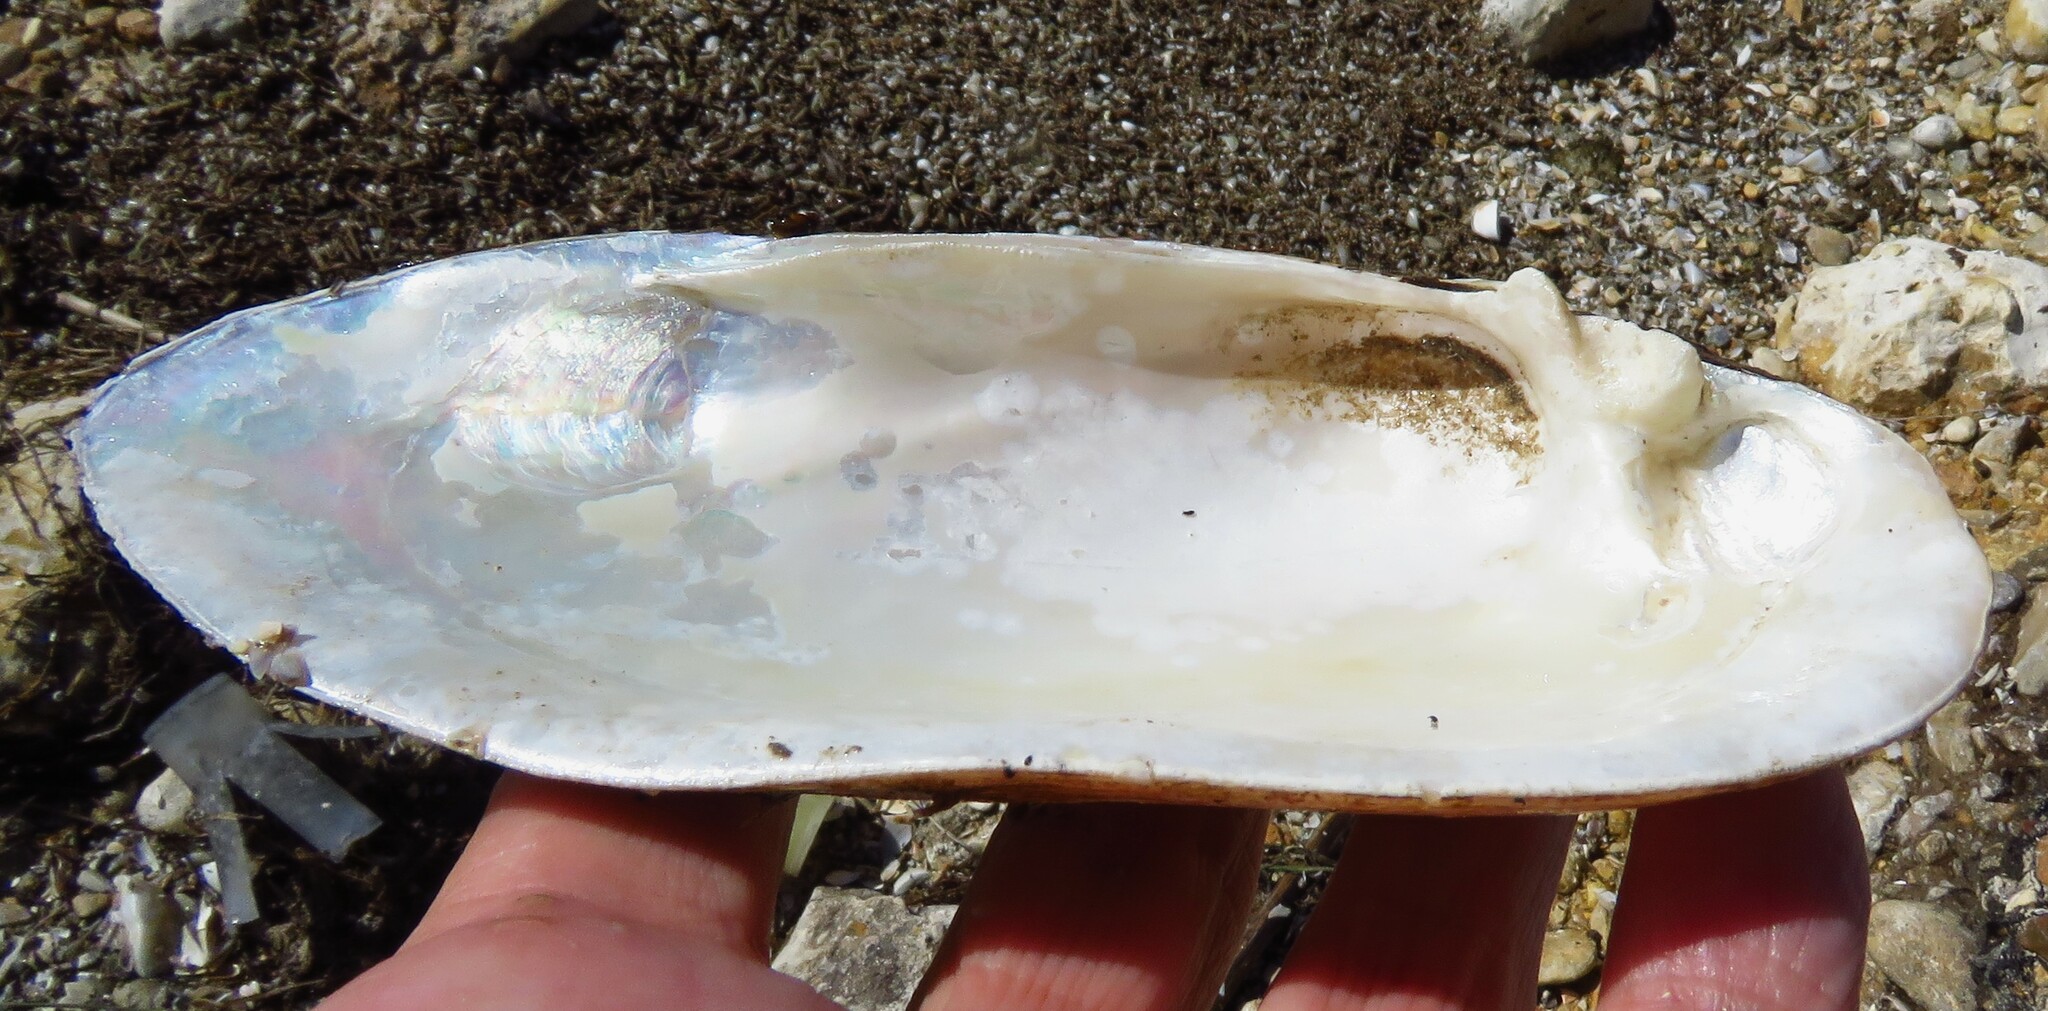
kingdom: Animalia
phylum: Mollusca
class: Bivalvia
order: Unionida
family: Unionidae
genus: Lampsilis
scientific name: Lampsilis teres
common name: Yellow sandshell
